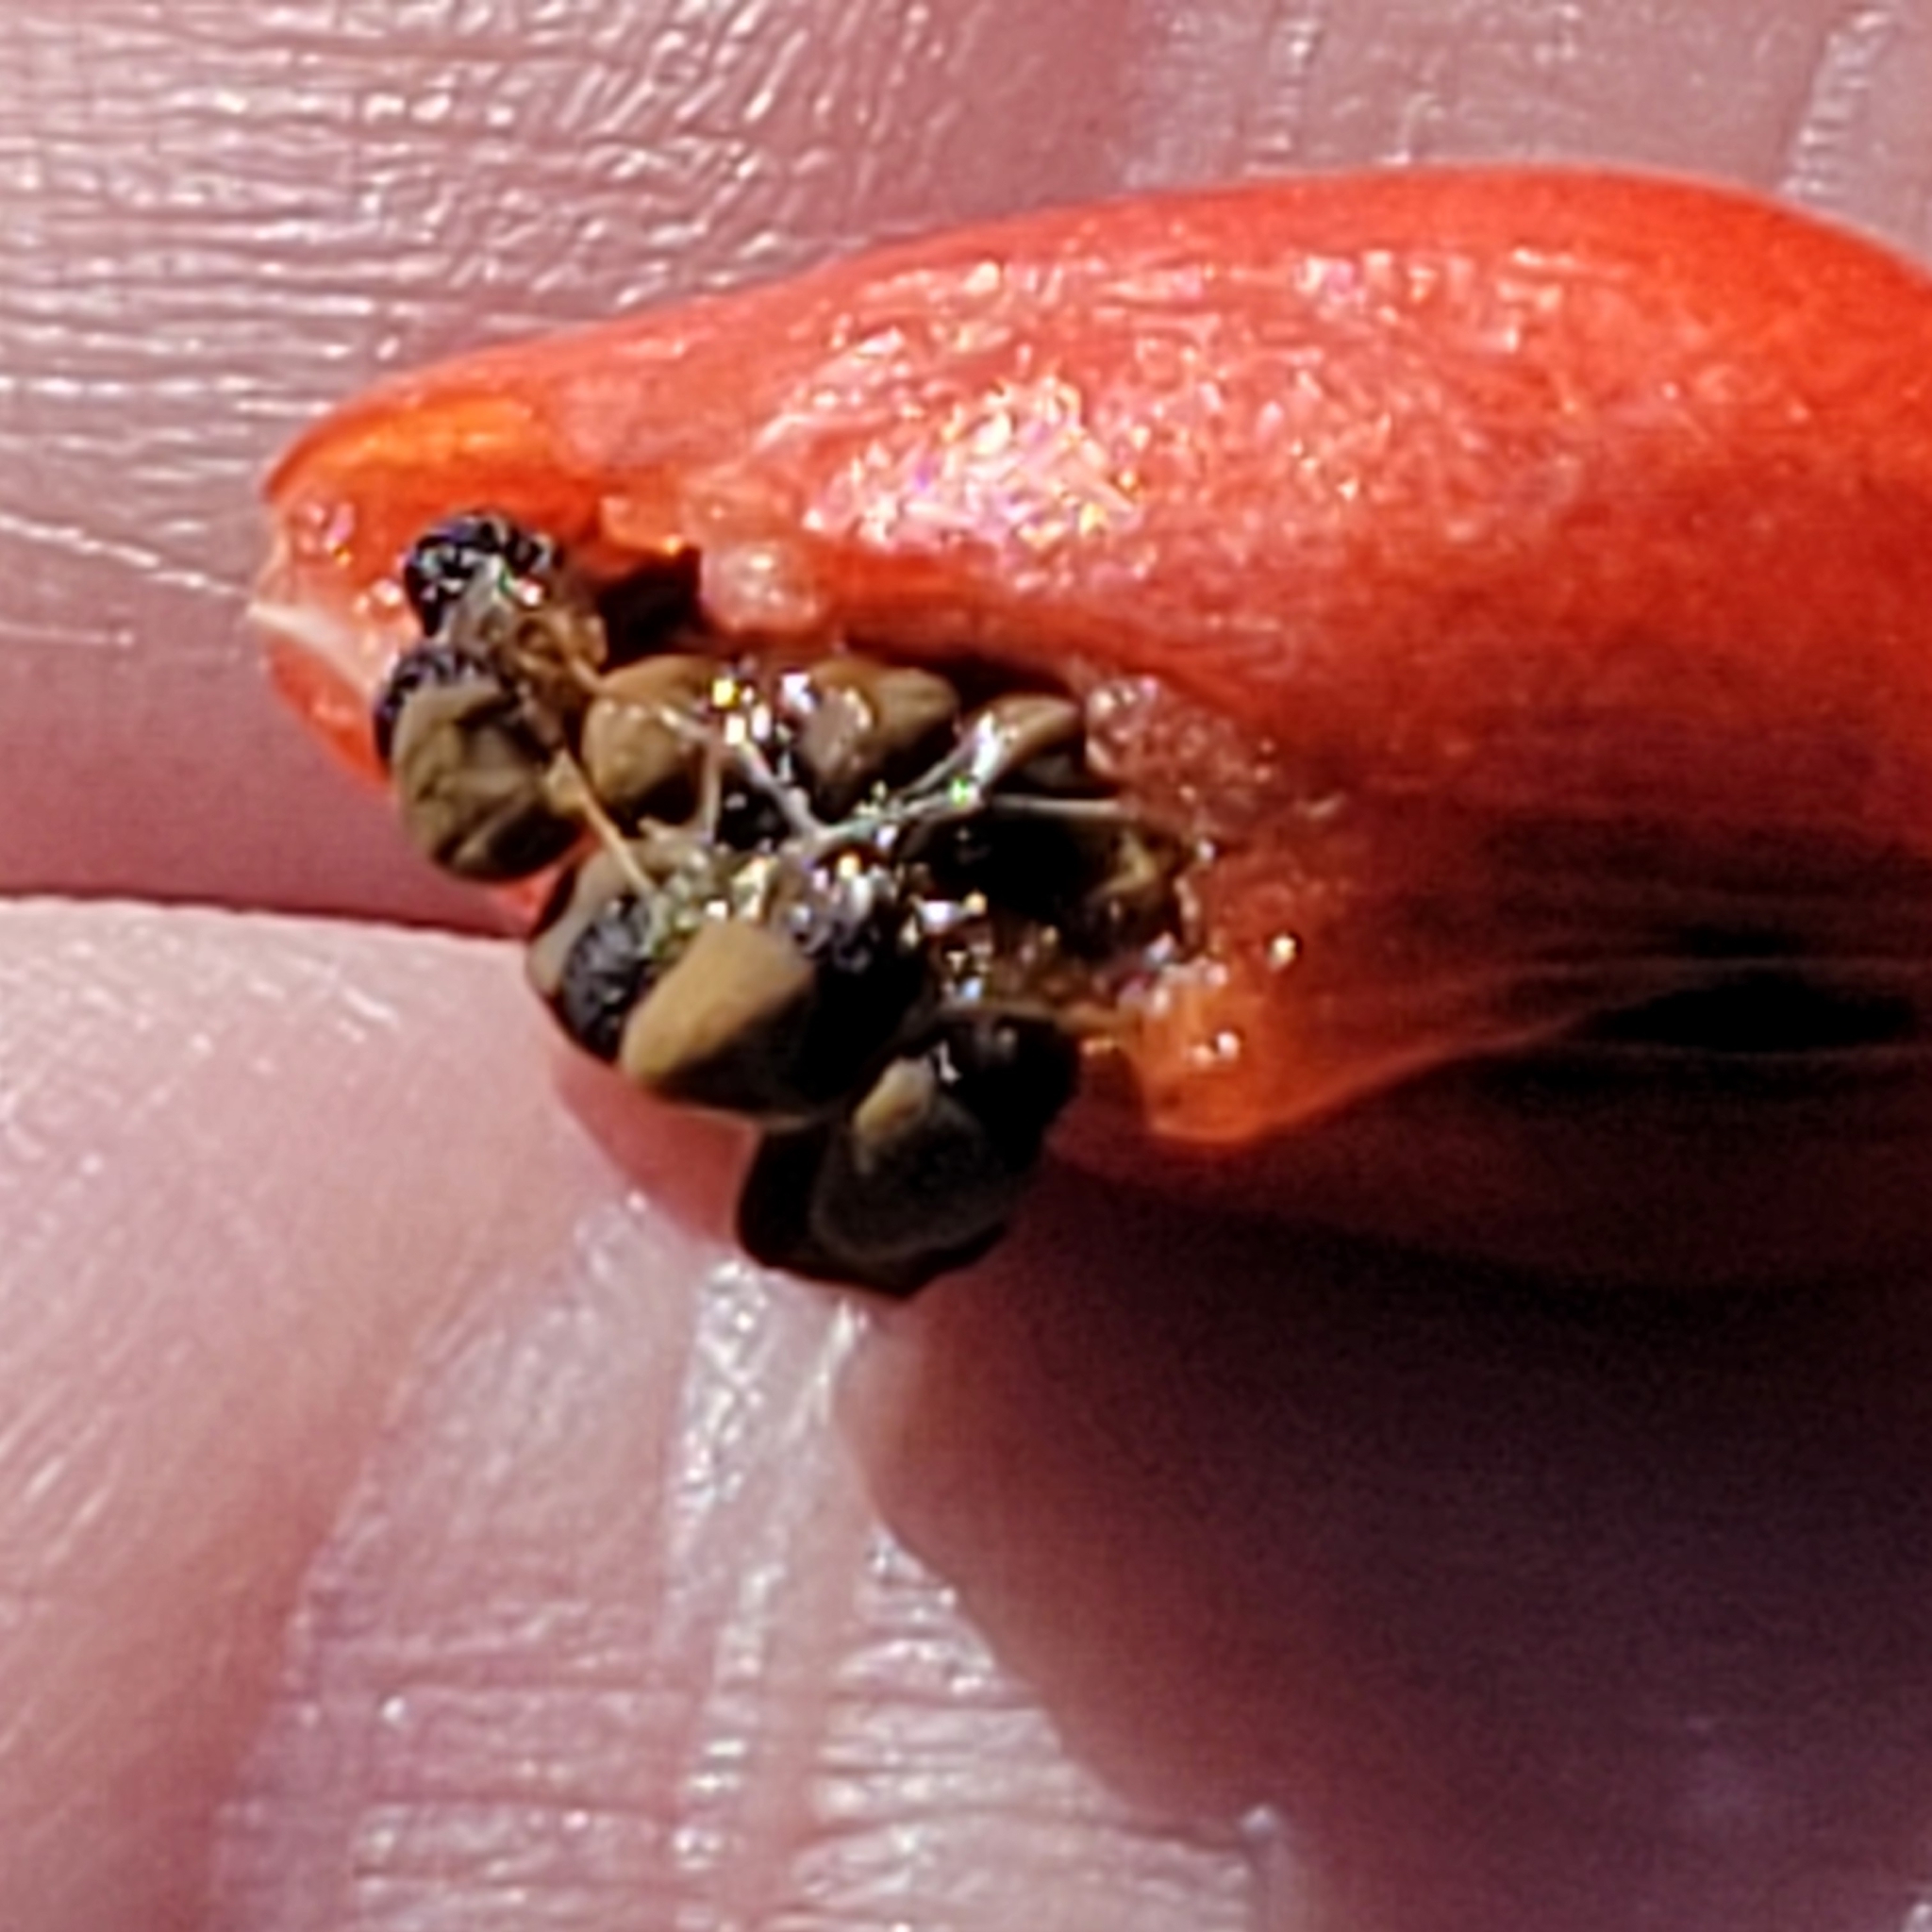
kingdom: Plantae
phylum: Tracheophyta
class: Magnoliopsida
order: Caryophyllales
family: Cactaceae
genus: Cochemiea
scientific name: Cochemiea tetrancistra
